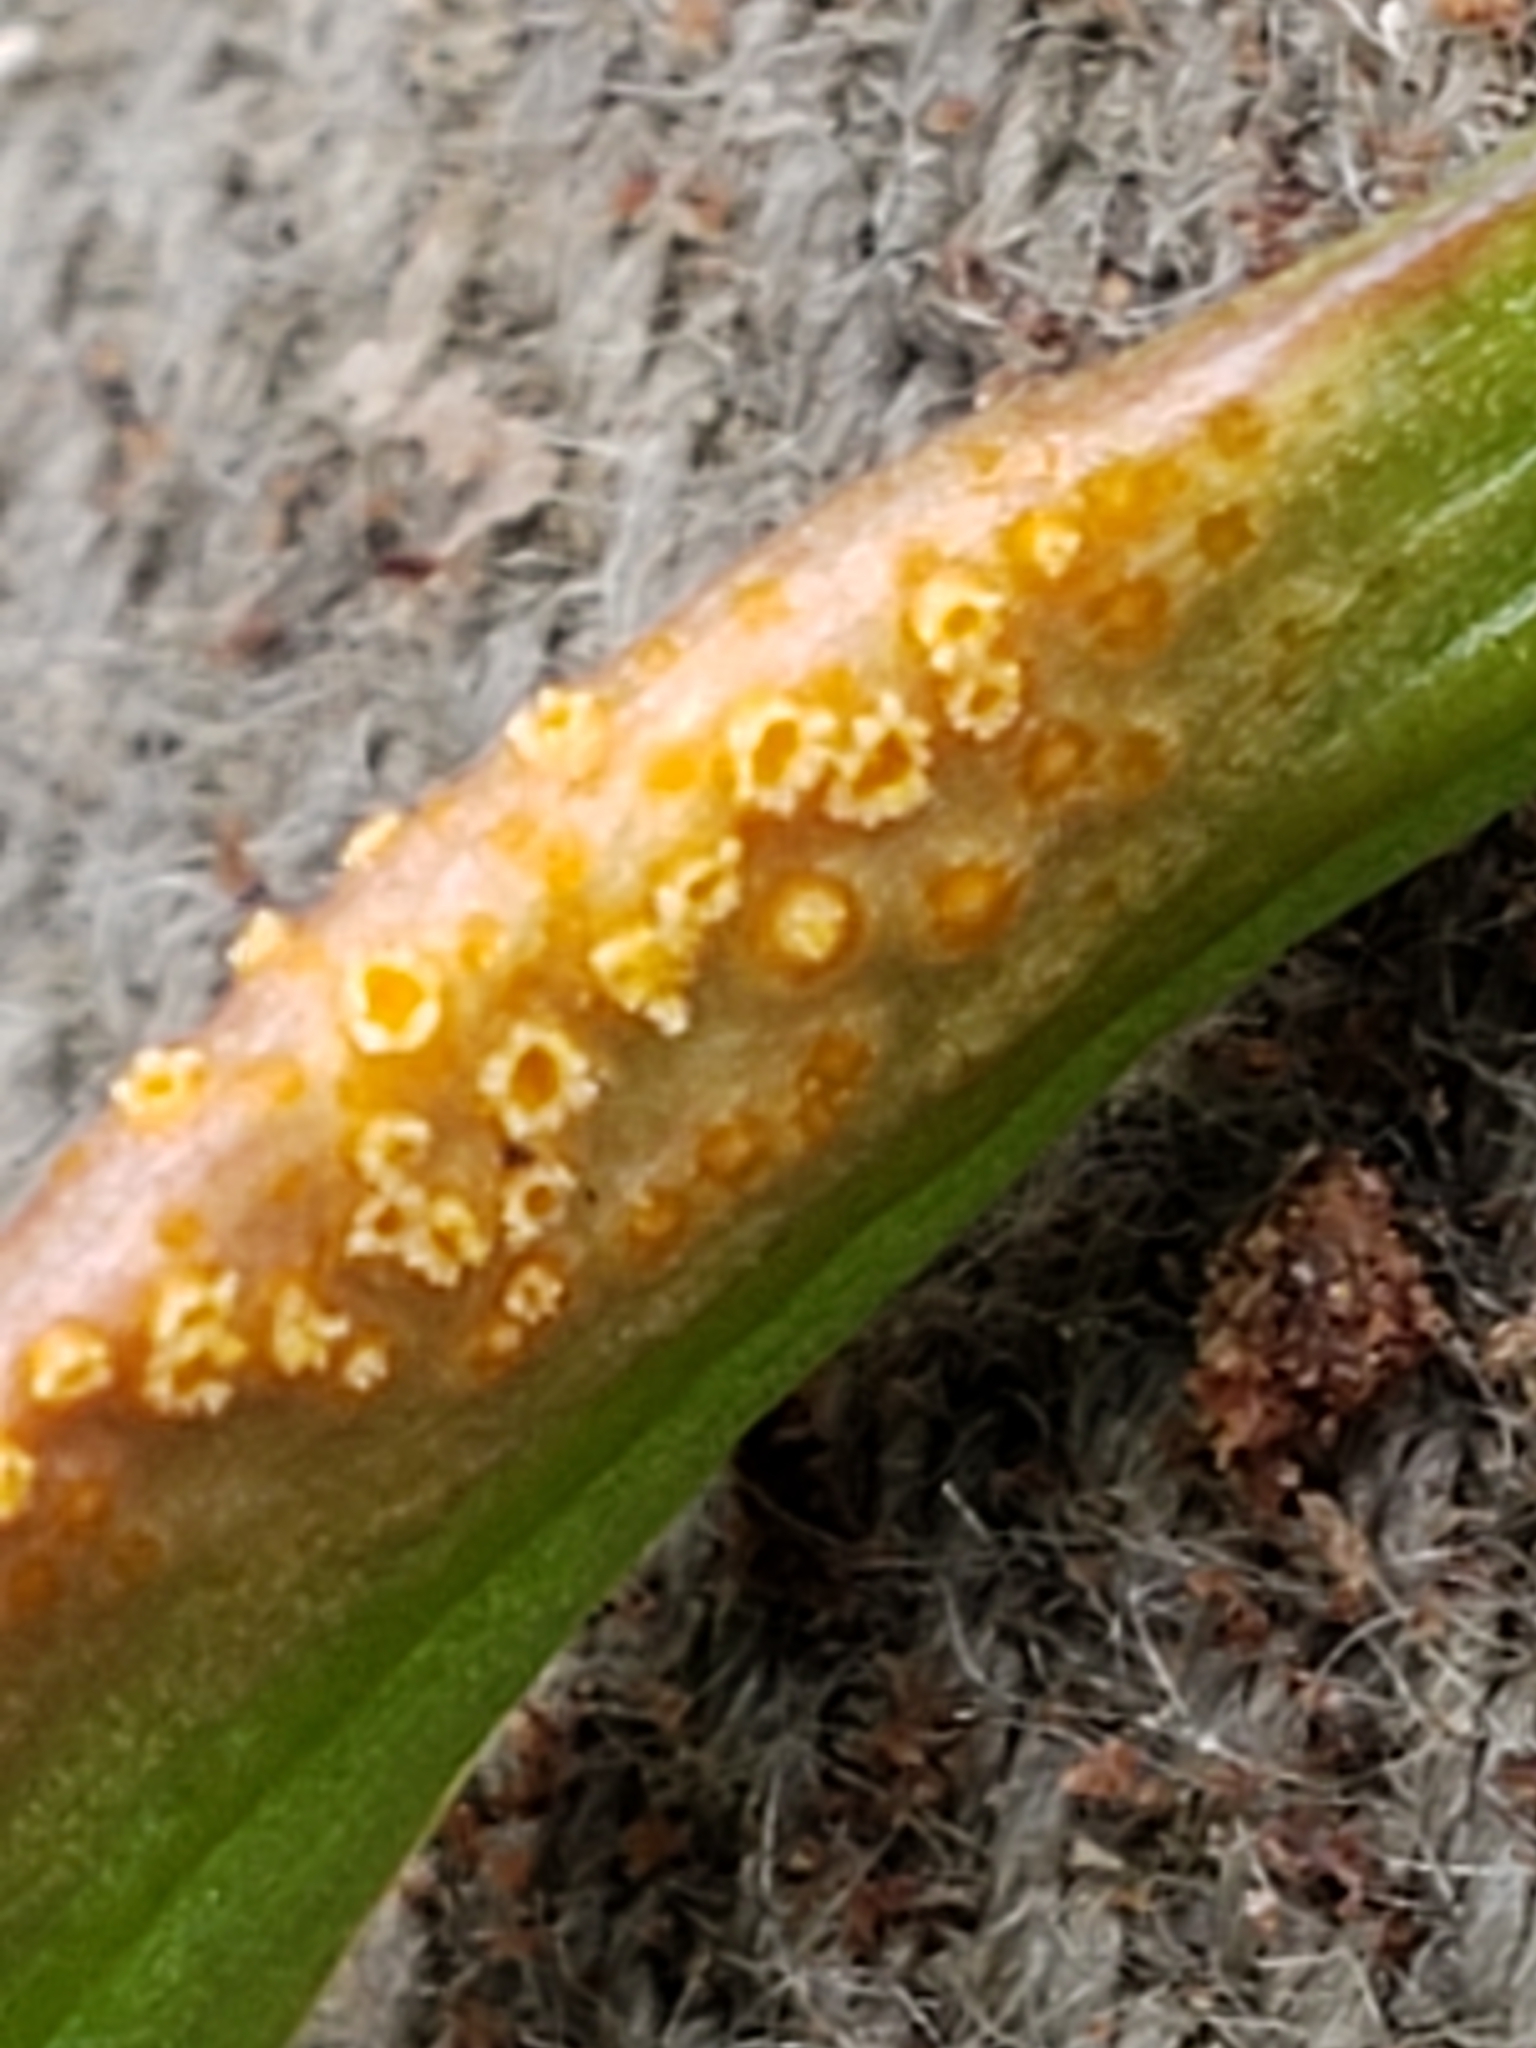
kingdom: Fungi
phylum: Basidiomycota
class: Pucciniomycetes
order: Pucciniales
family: Pucciniaceae
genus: Puccinia
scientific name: Puccinia mariae-wilsoniae
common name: Spring beauty rust
